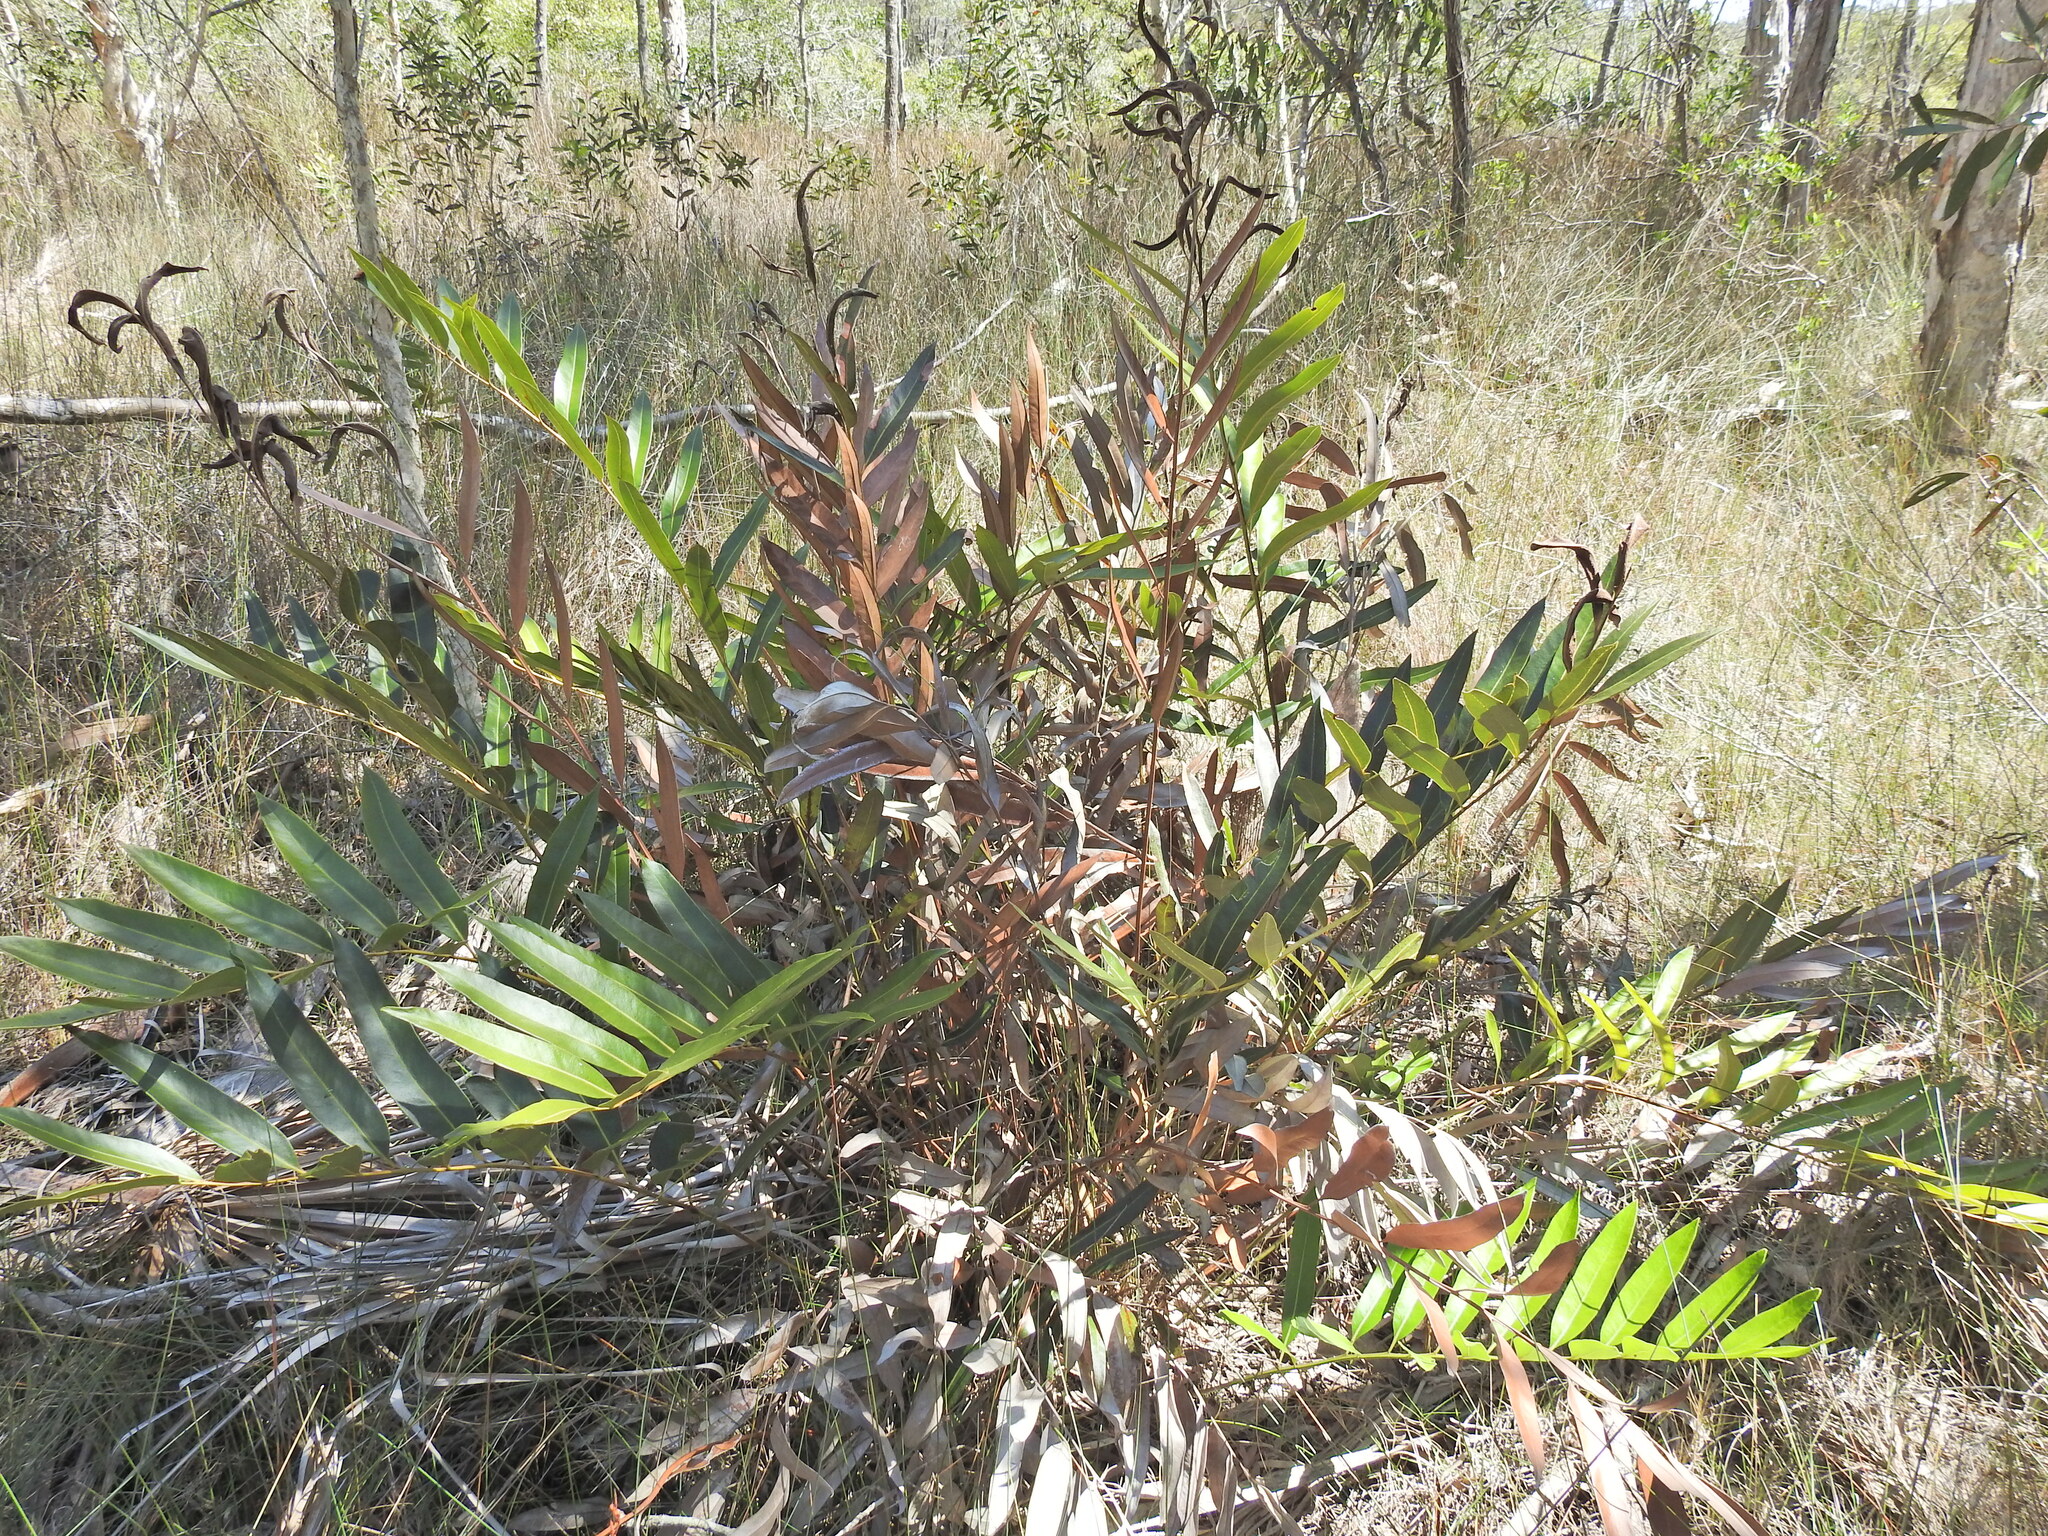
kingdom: Plantae
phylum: Tracheophyta
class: Polypodiopsida
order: Polypodiales
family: Pteridaceae
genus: Acrostichum
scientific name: Acrostichum speciosum
